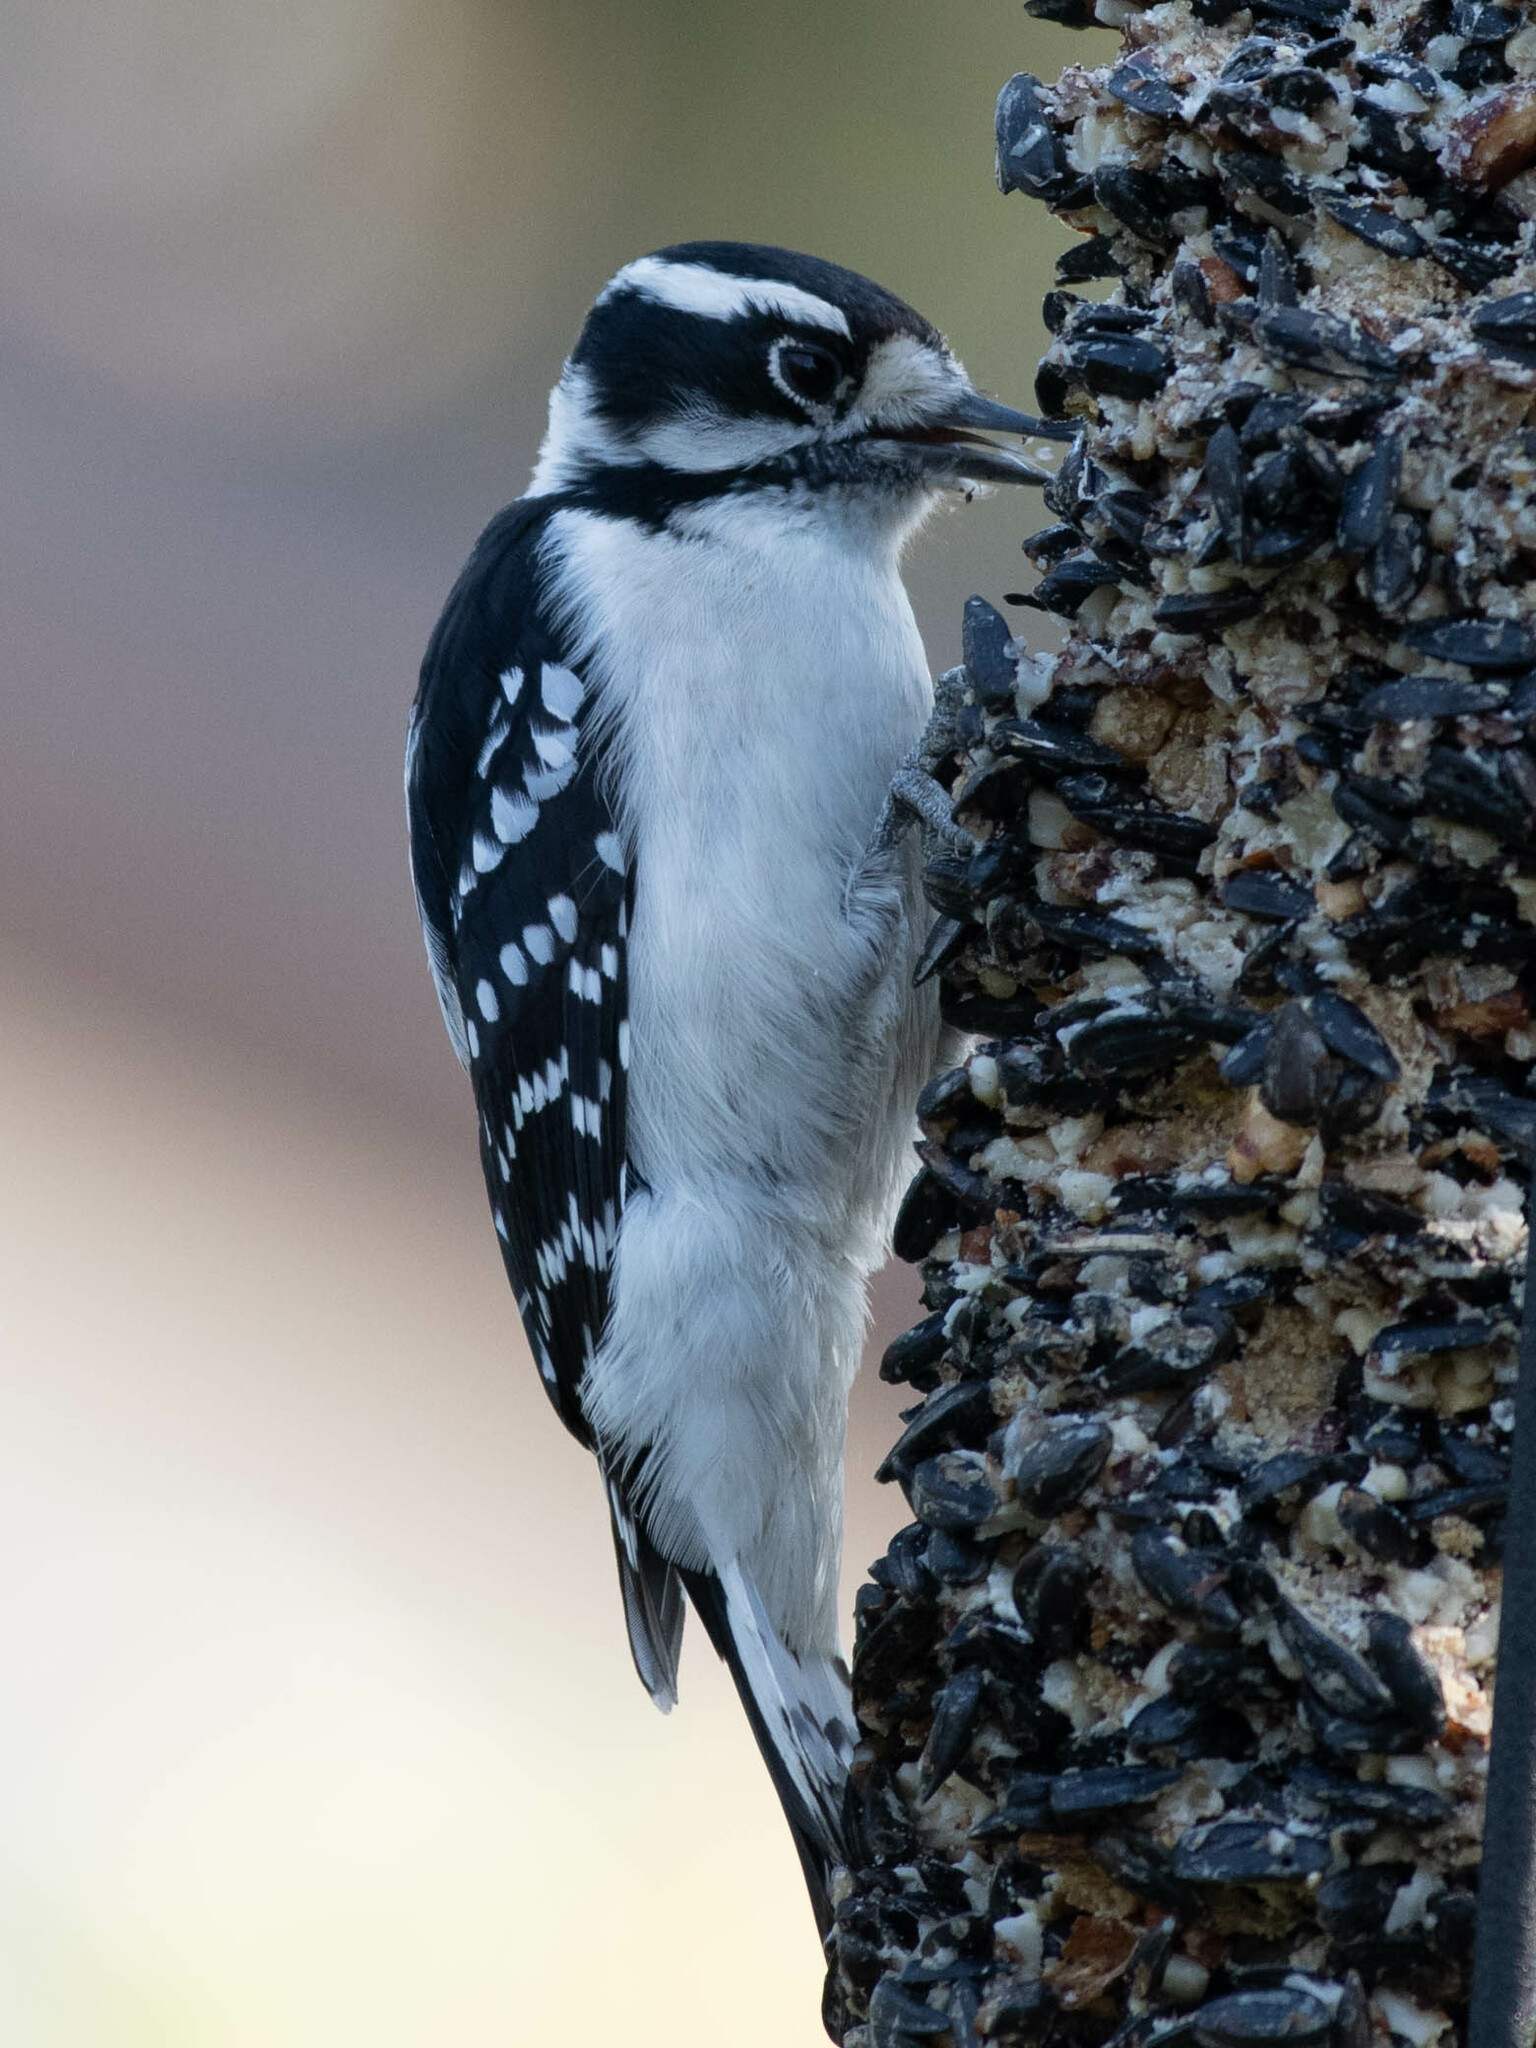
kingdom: Animalia
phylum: Chordata
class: Aves
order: Piciformes
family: Picidae
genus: Dryobates
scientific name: Dryobates pubescens
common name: Downy woodpecker
